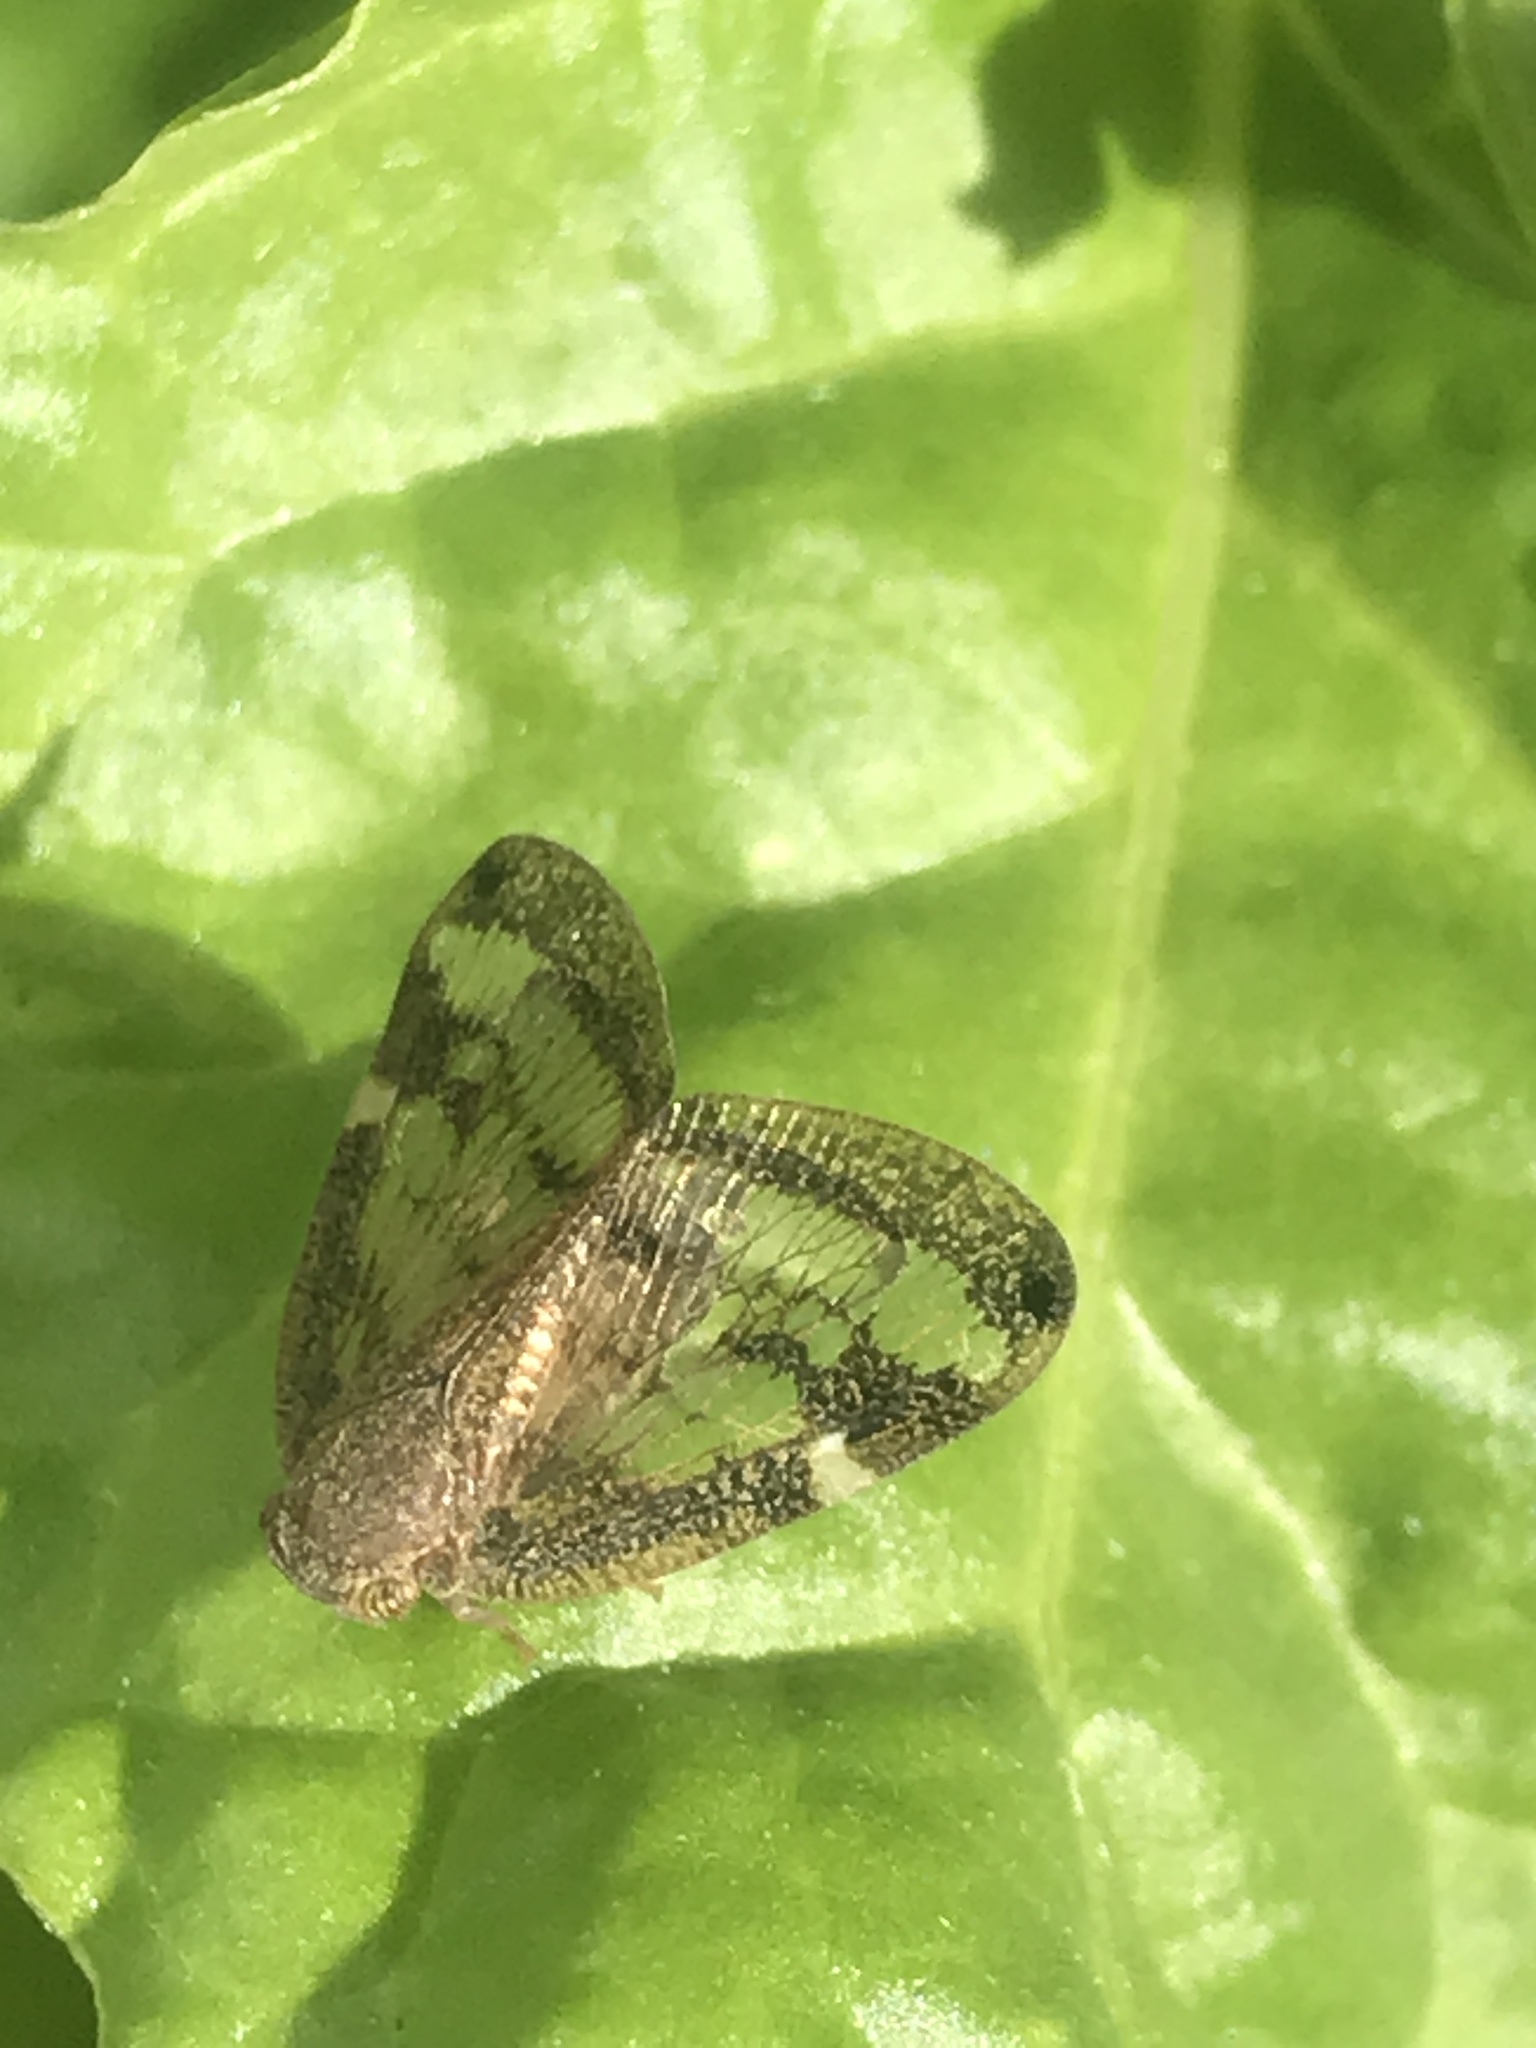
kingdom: Animalia
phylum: Arthropoda
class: Insecta
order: Hemiptera
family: Ricaniidae
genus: Scolypopa
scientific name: Scolypopa australis
